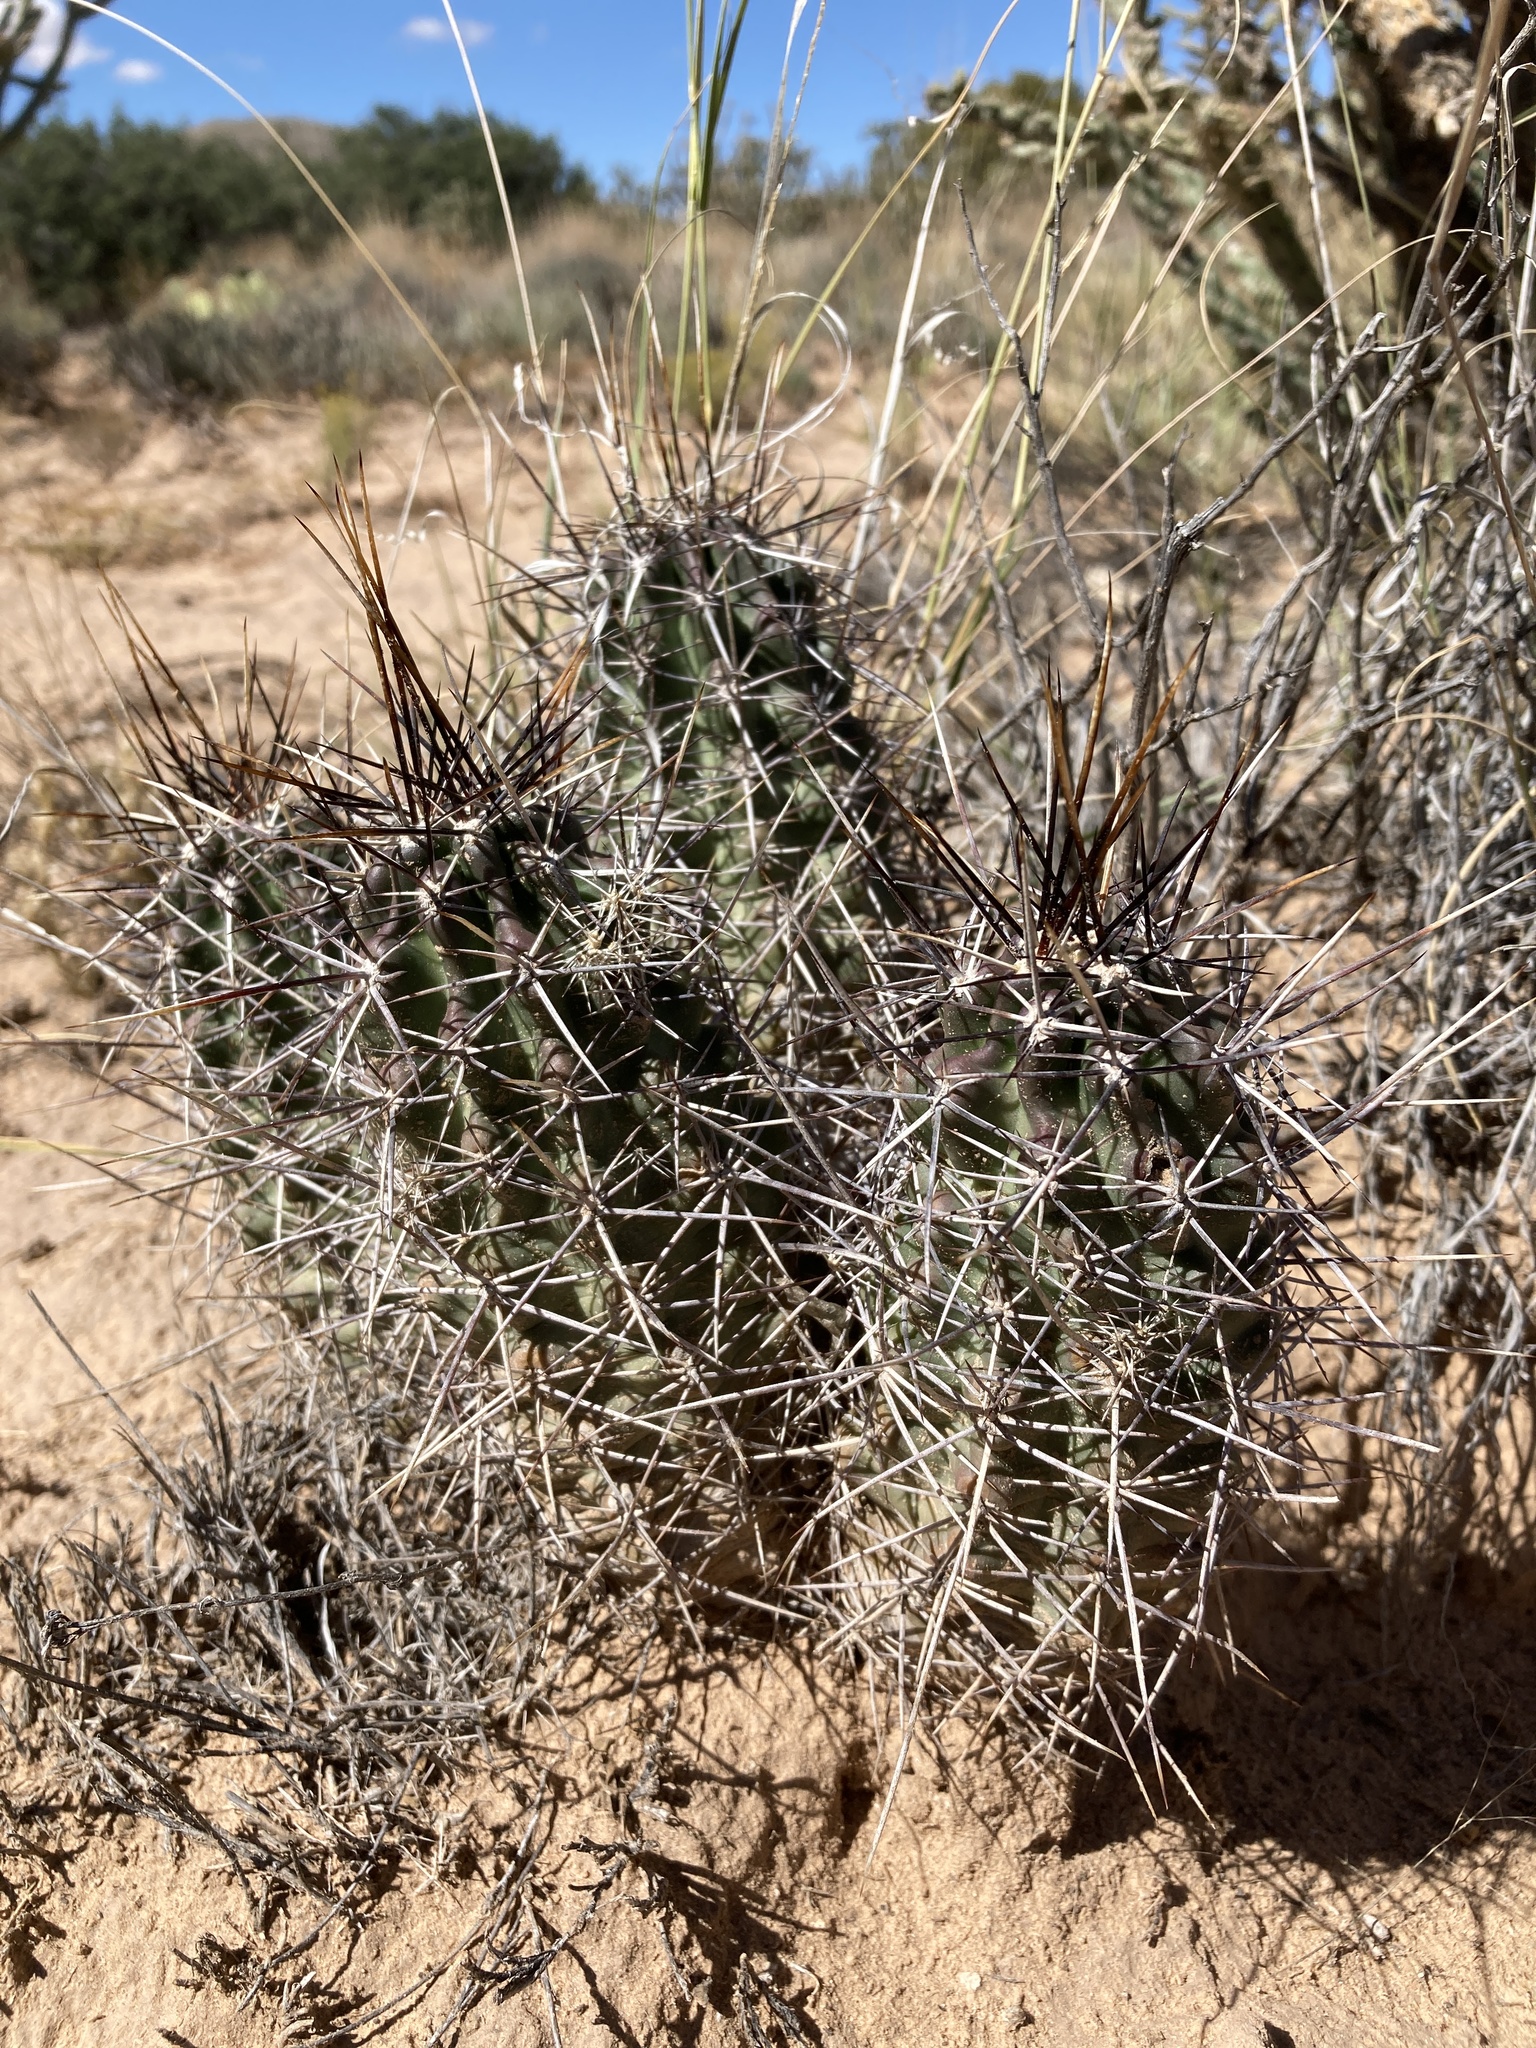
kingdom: Plantae
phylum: Tracheophyta
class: Magnoliopsida
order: Caryophyllales
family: Cactaceae
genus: Echinocereus
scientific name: Echinocereus fendleri
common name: Fendler's hedgehog cactus
